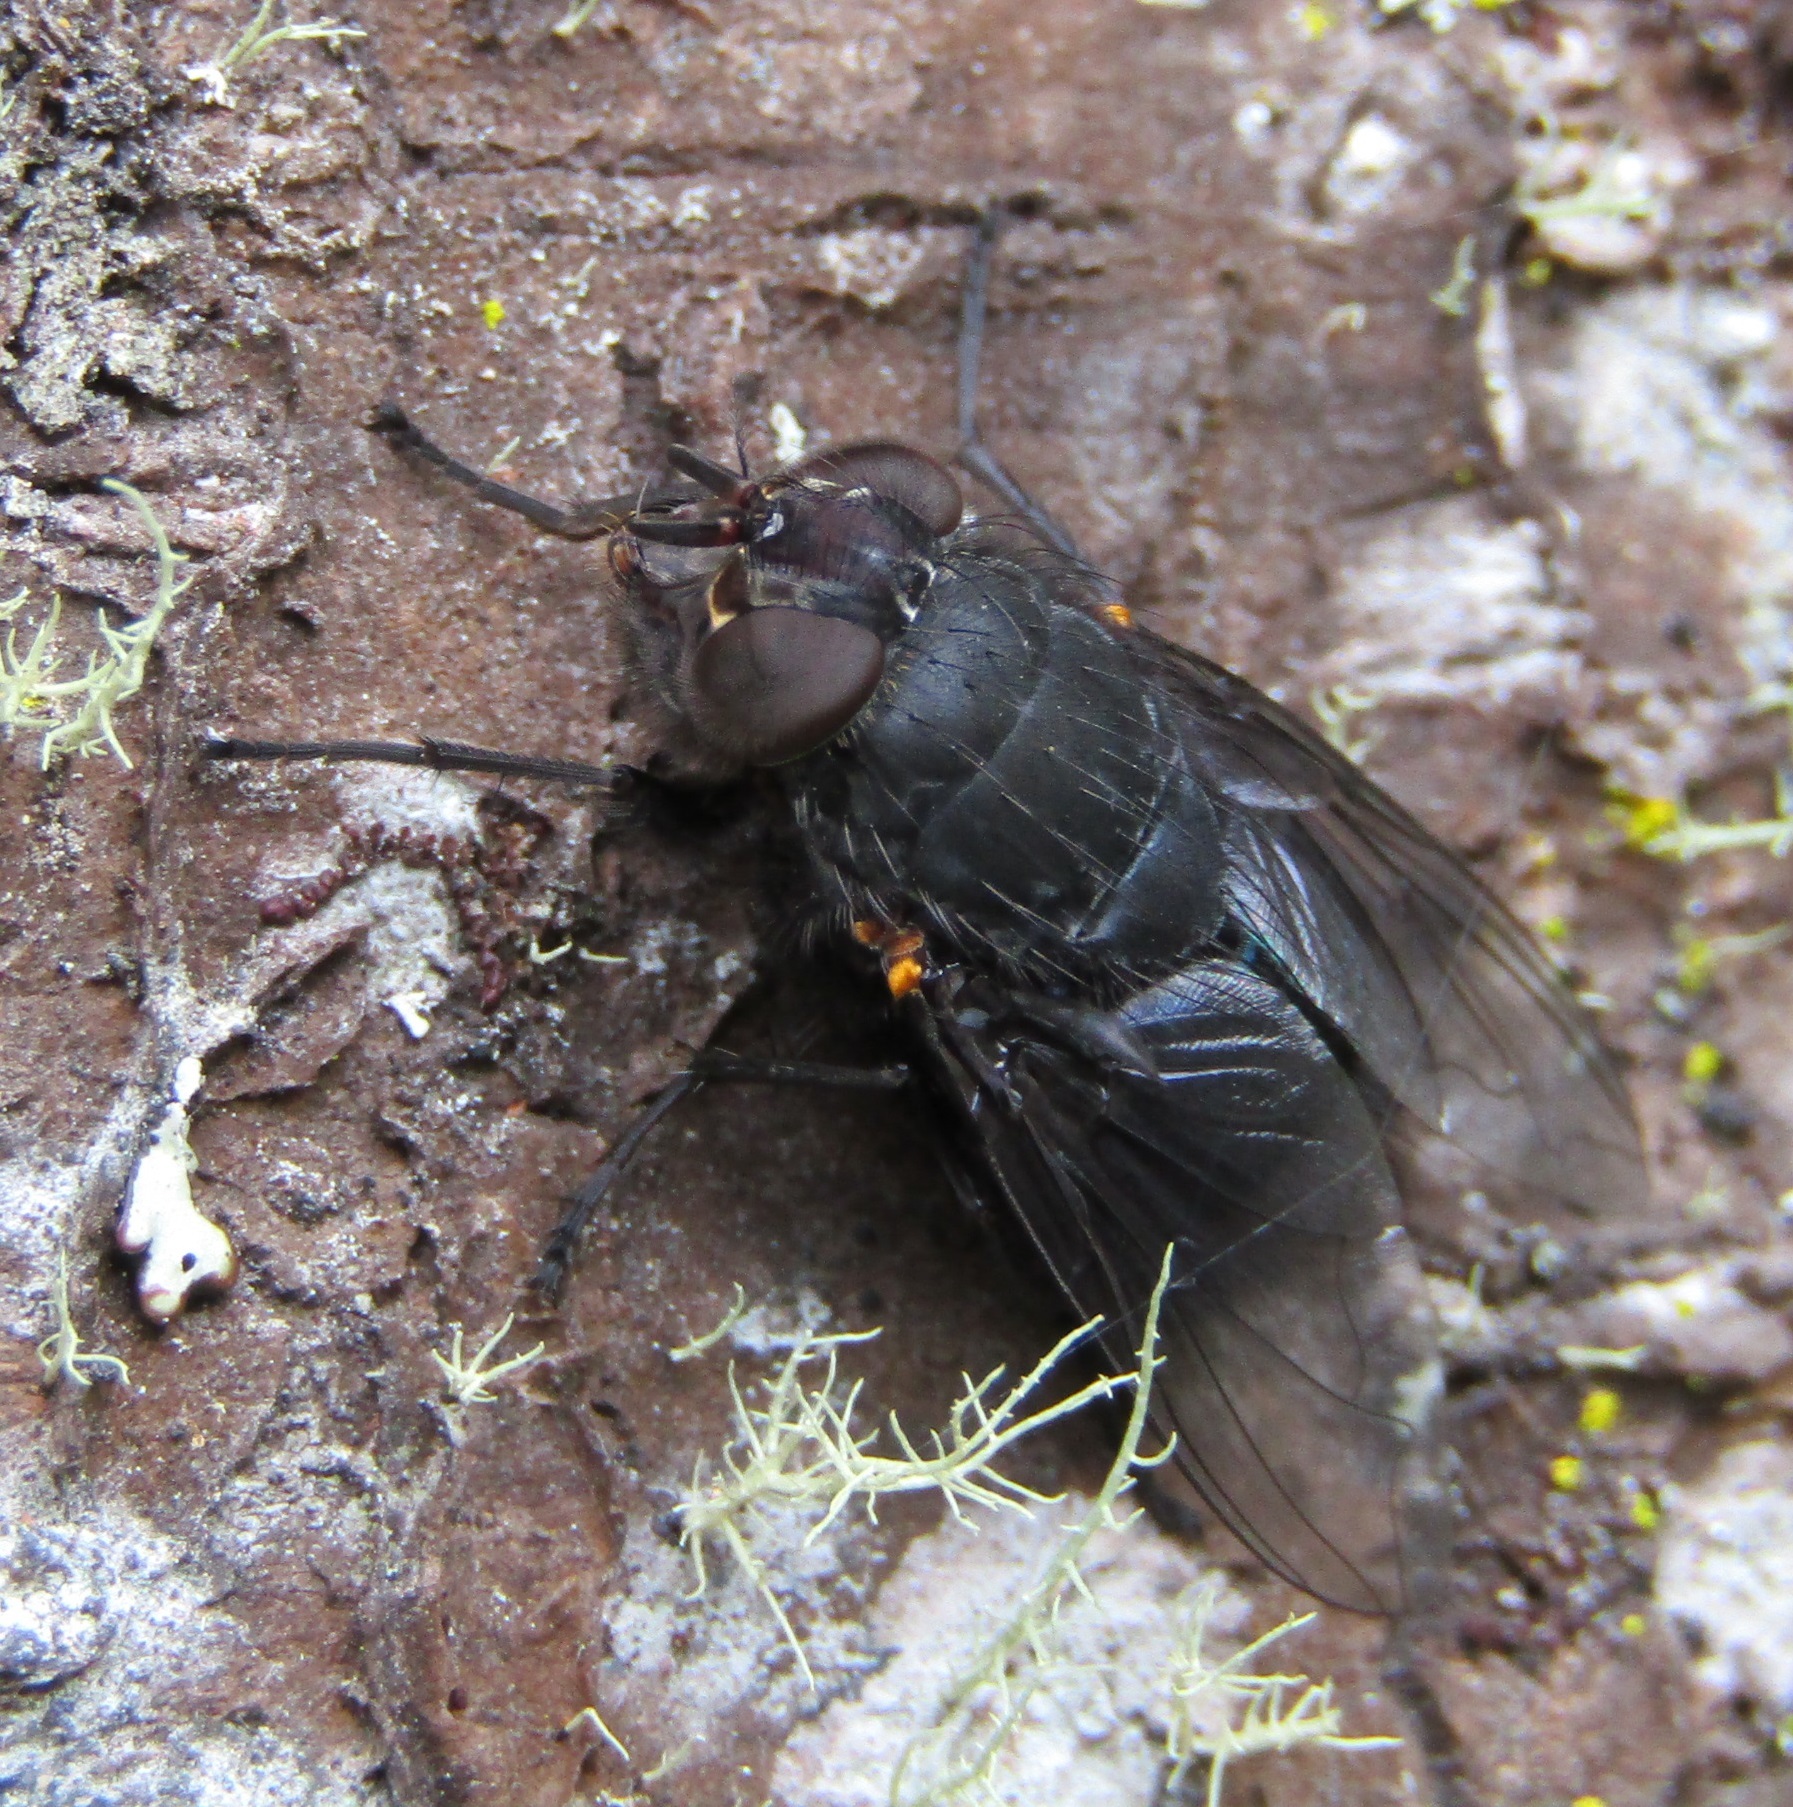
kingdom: Animalia
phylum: Arthropoda
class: Insecta
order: Diptera
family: Calliphoridae
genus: Calliphora
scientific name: Calliphora quadrimaculata
